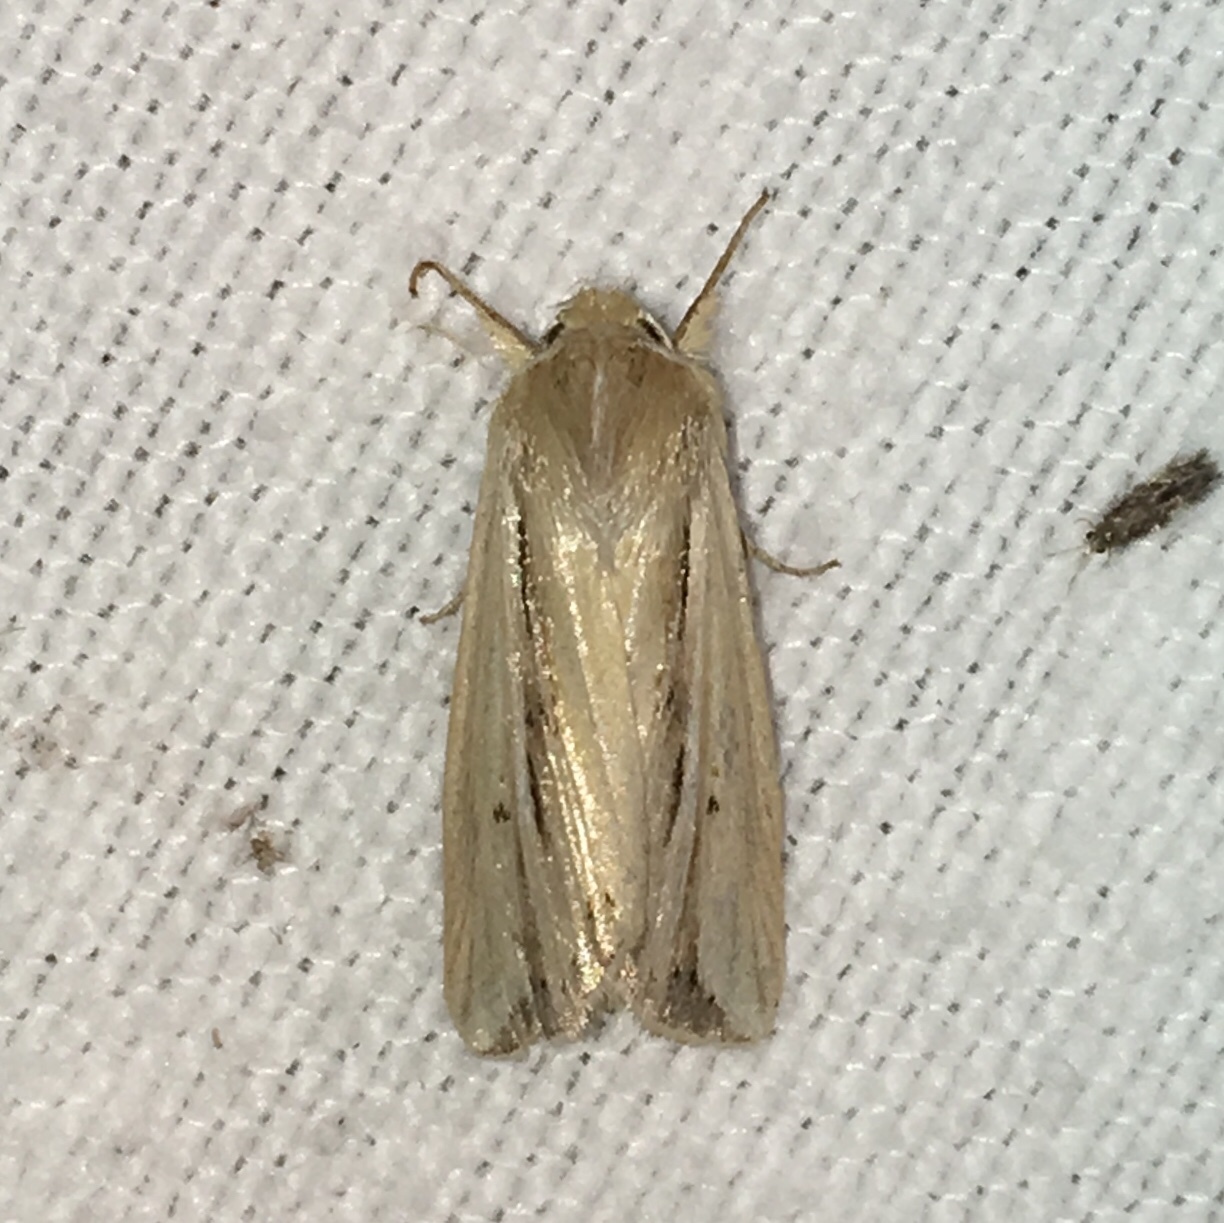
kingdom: Animalia
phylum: Arthropoda
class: Insecta
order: Lepidoptera
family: Noctuidae
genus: Dargida
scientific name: Dargida diffusa
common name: Wheat head armyworm
